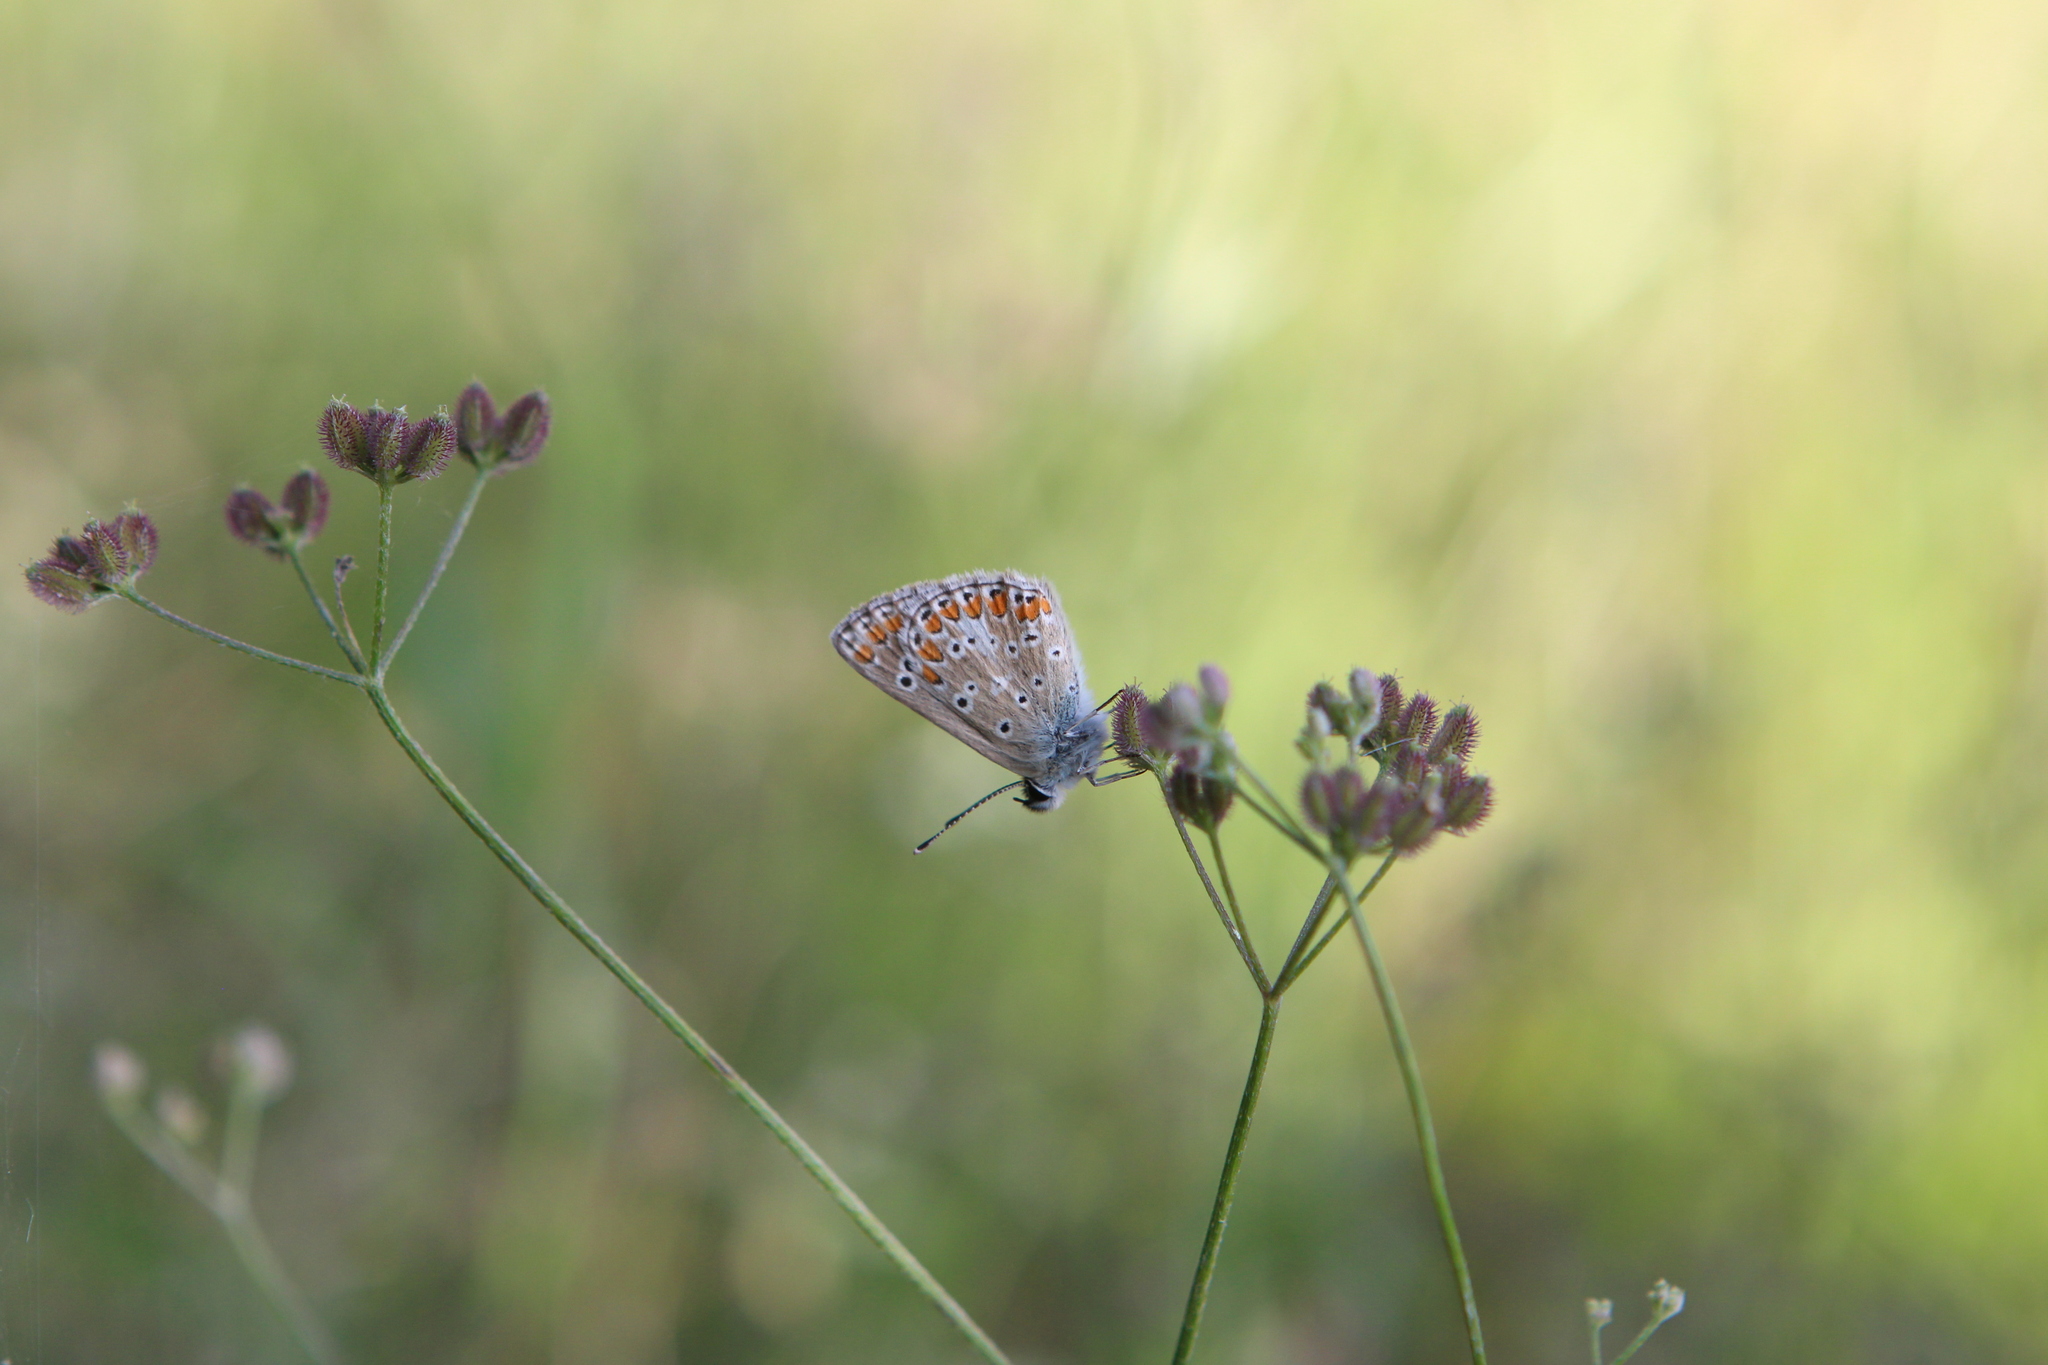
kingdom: Animalia
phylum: Arthropoda
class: Insecta
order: Lepidoptera
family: Lycaenidae
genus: Aricia
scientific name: Aricia agestis
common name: Brown argus
